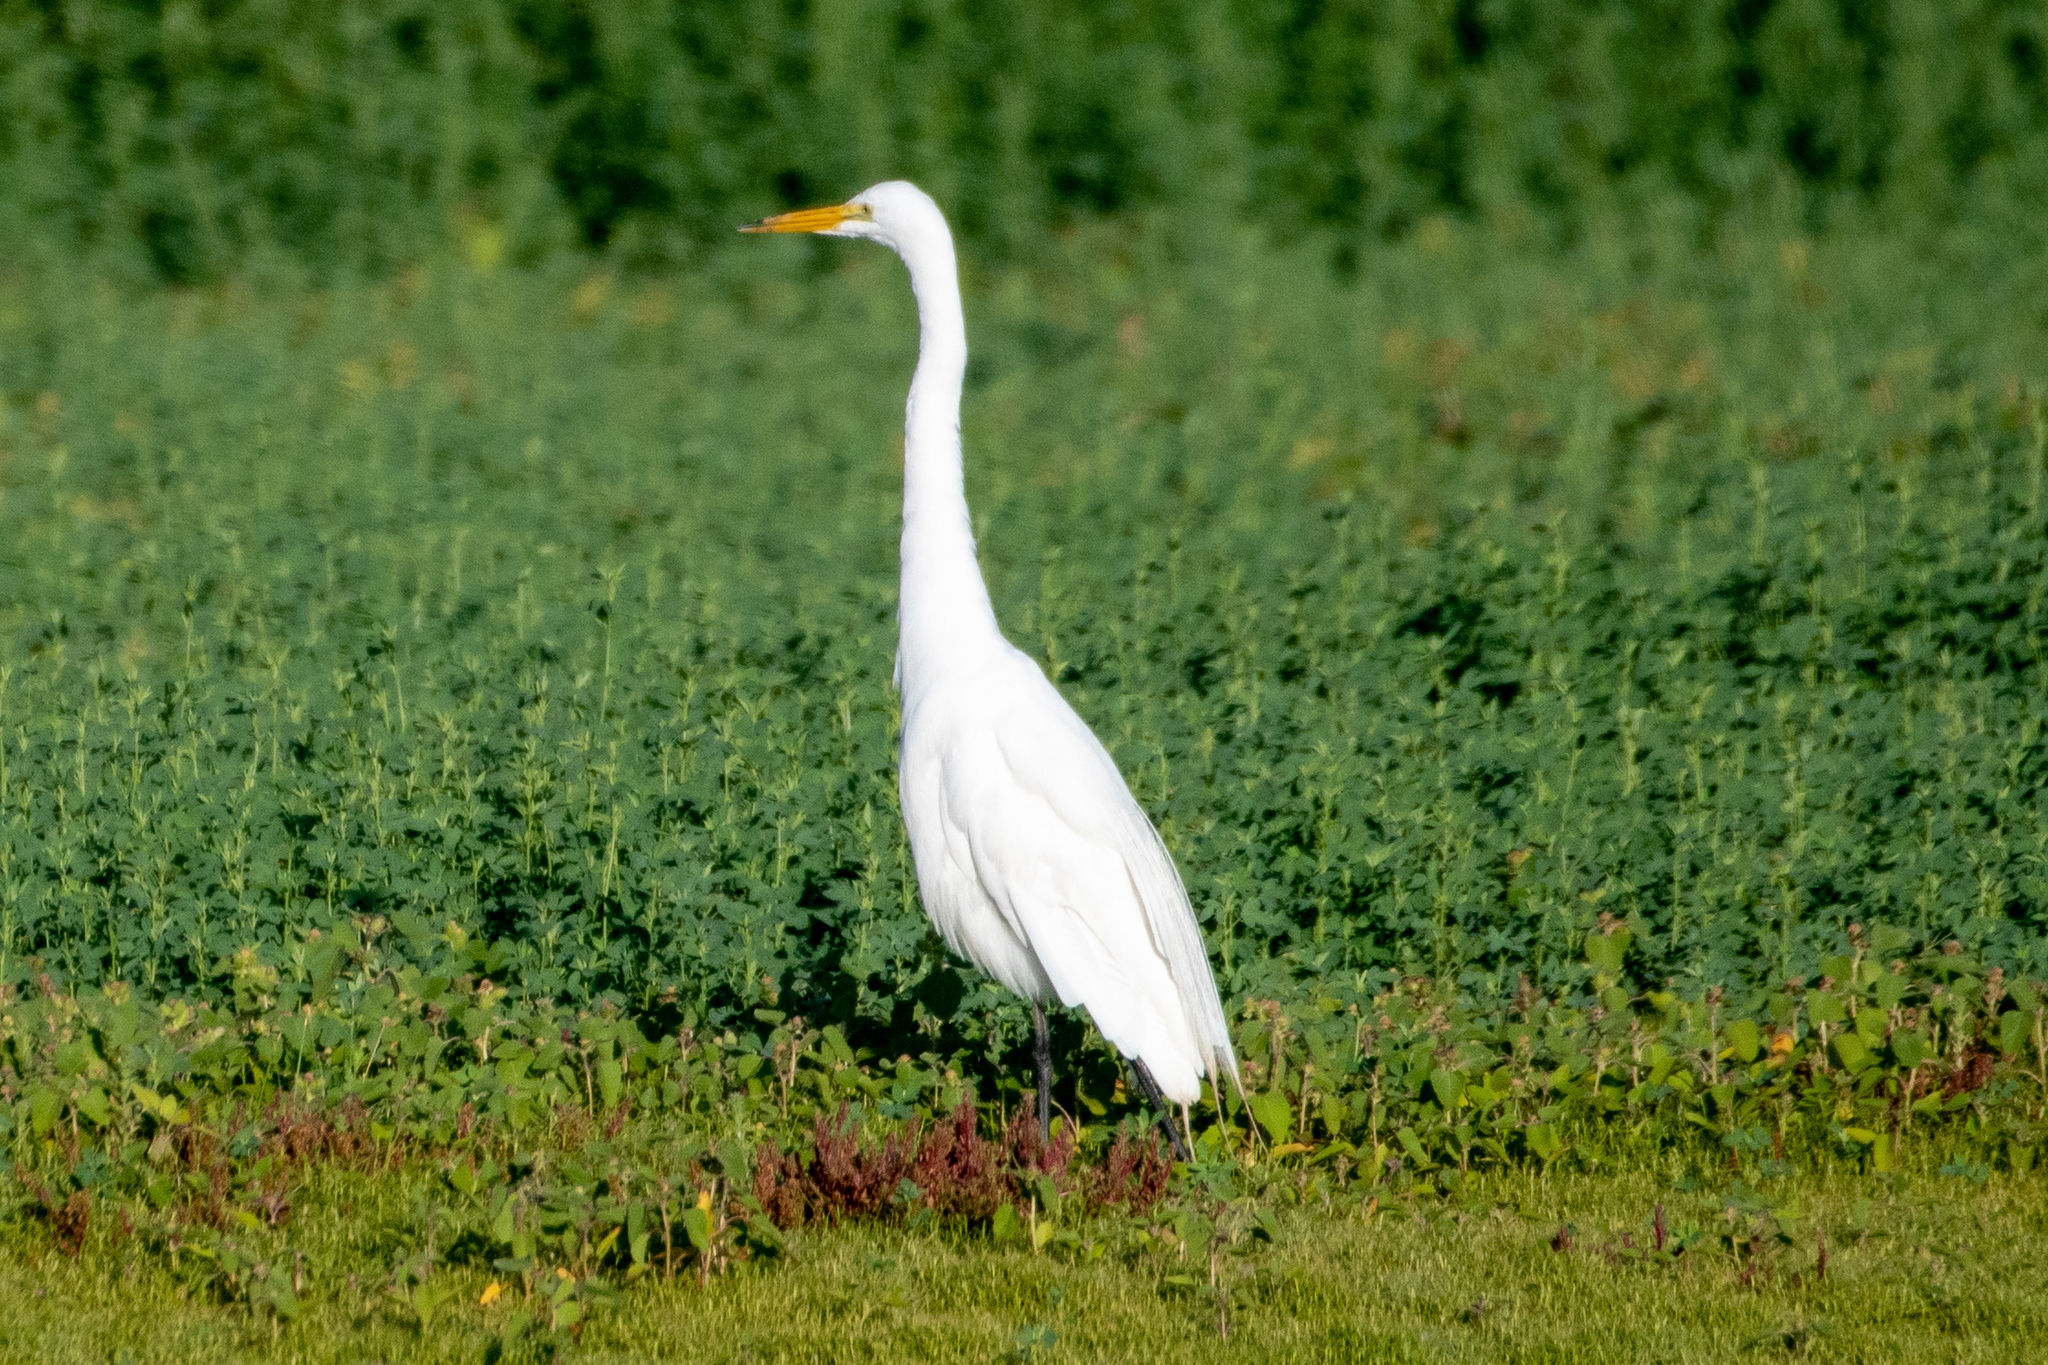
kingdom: Animalia
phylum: Chordata
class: Aves
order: Pelecaniformes
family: Ardeidae
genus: Ardea
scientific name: Ardea alba
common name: Great egret
